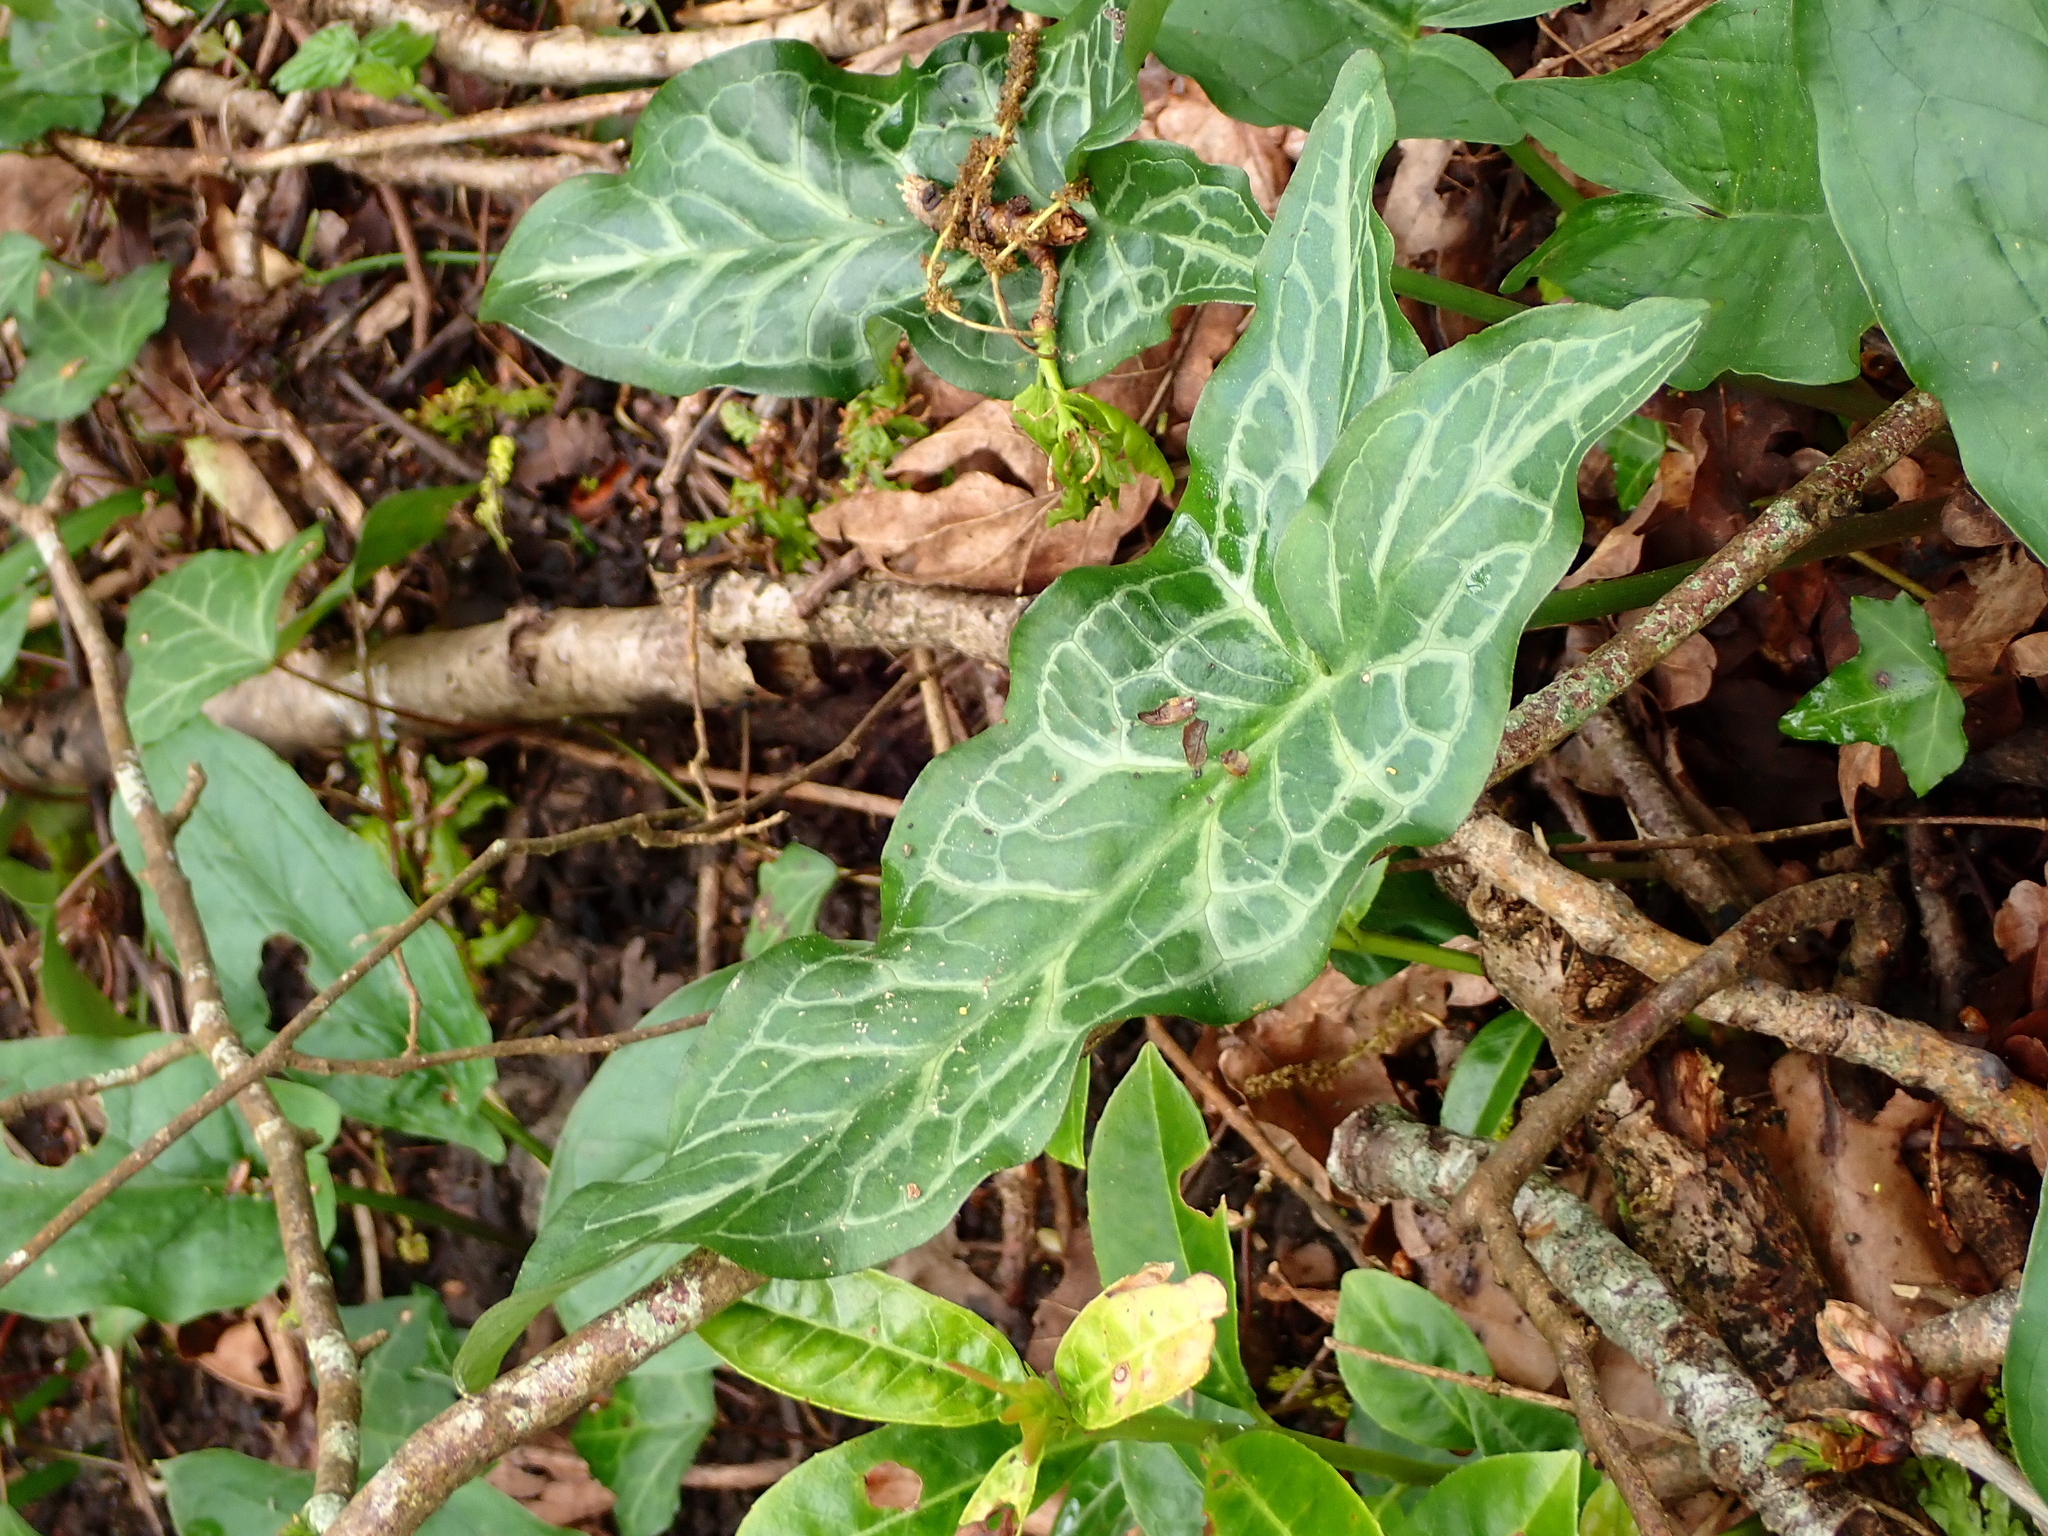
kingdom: Plantae
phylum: Tracheophyta
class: Liliopsida
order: Alismatales
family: Araceae
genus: Arum
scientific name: Arum italicum
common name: Italian lords-and-ladies
